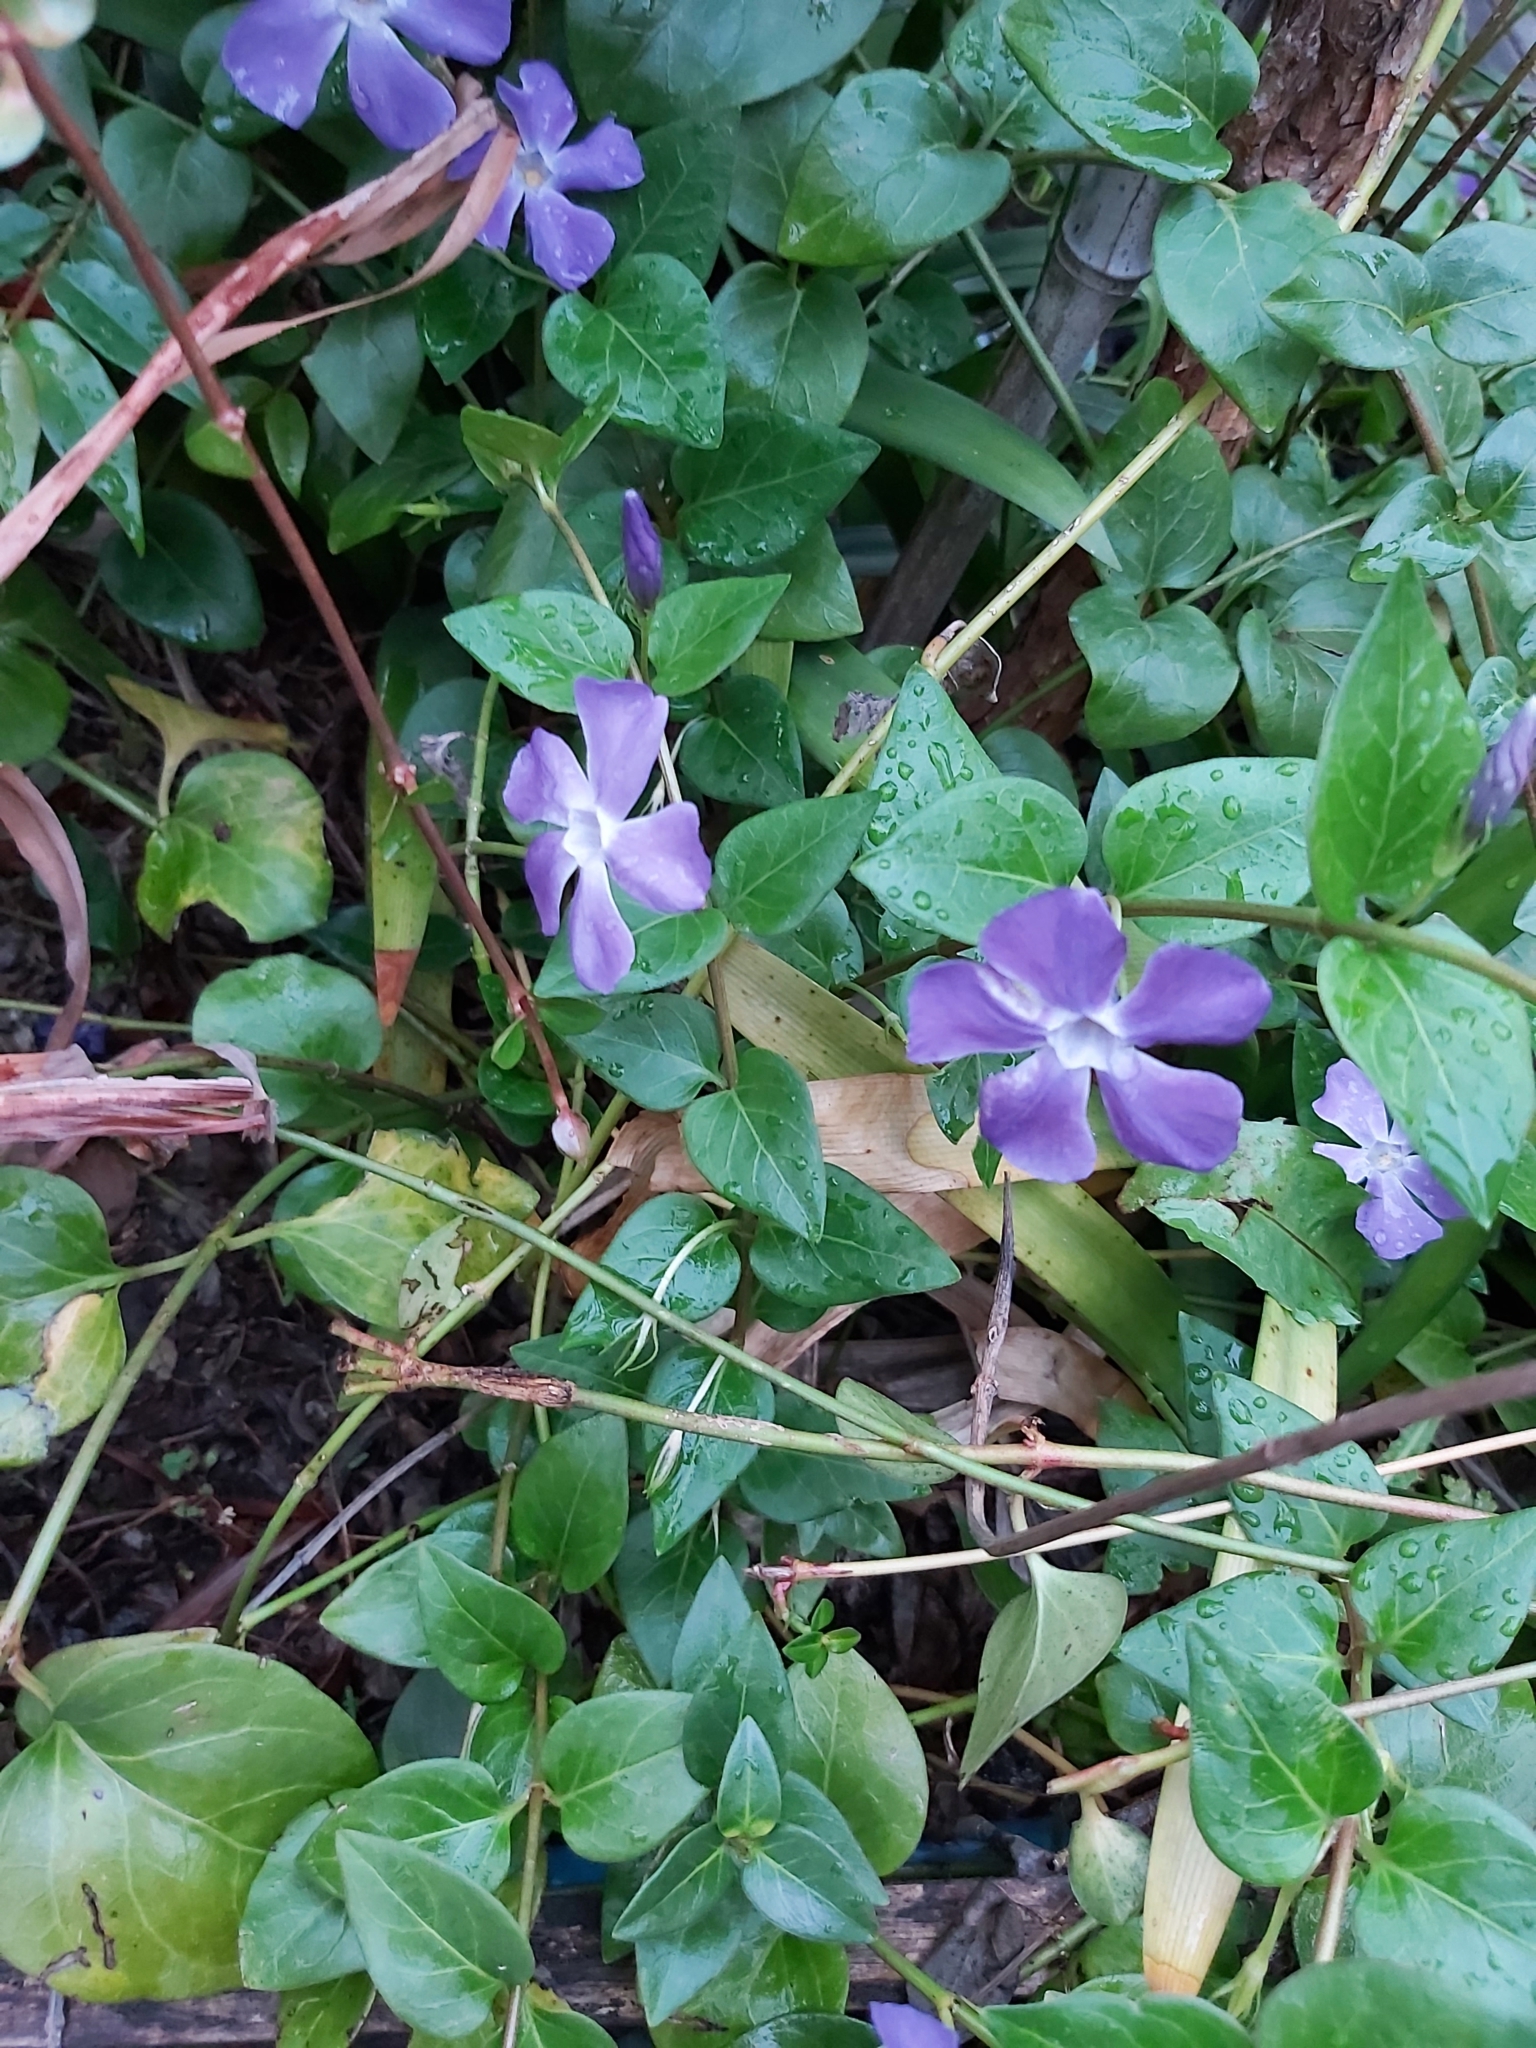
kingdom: Plantae
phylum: Tracheophyta
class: Magnoliopsida
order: Gentianales
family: Apocynaceae
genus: Vinca
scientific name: Vinca major
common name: Greater periwinkle
